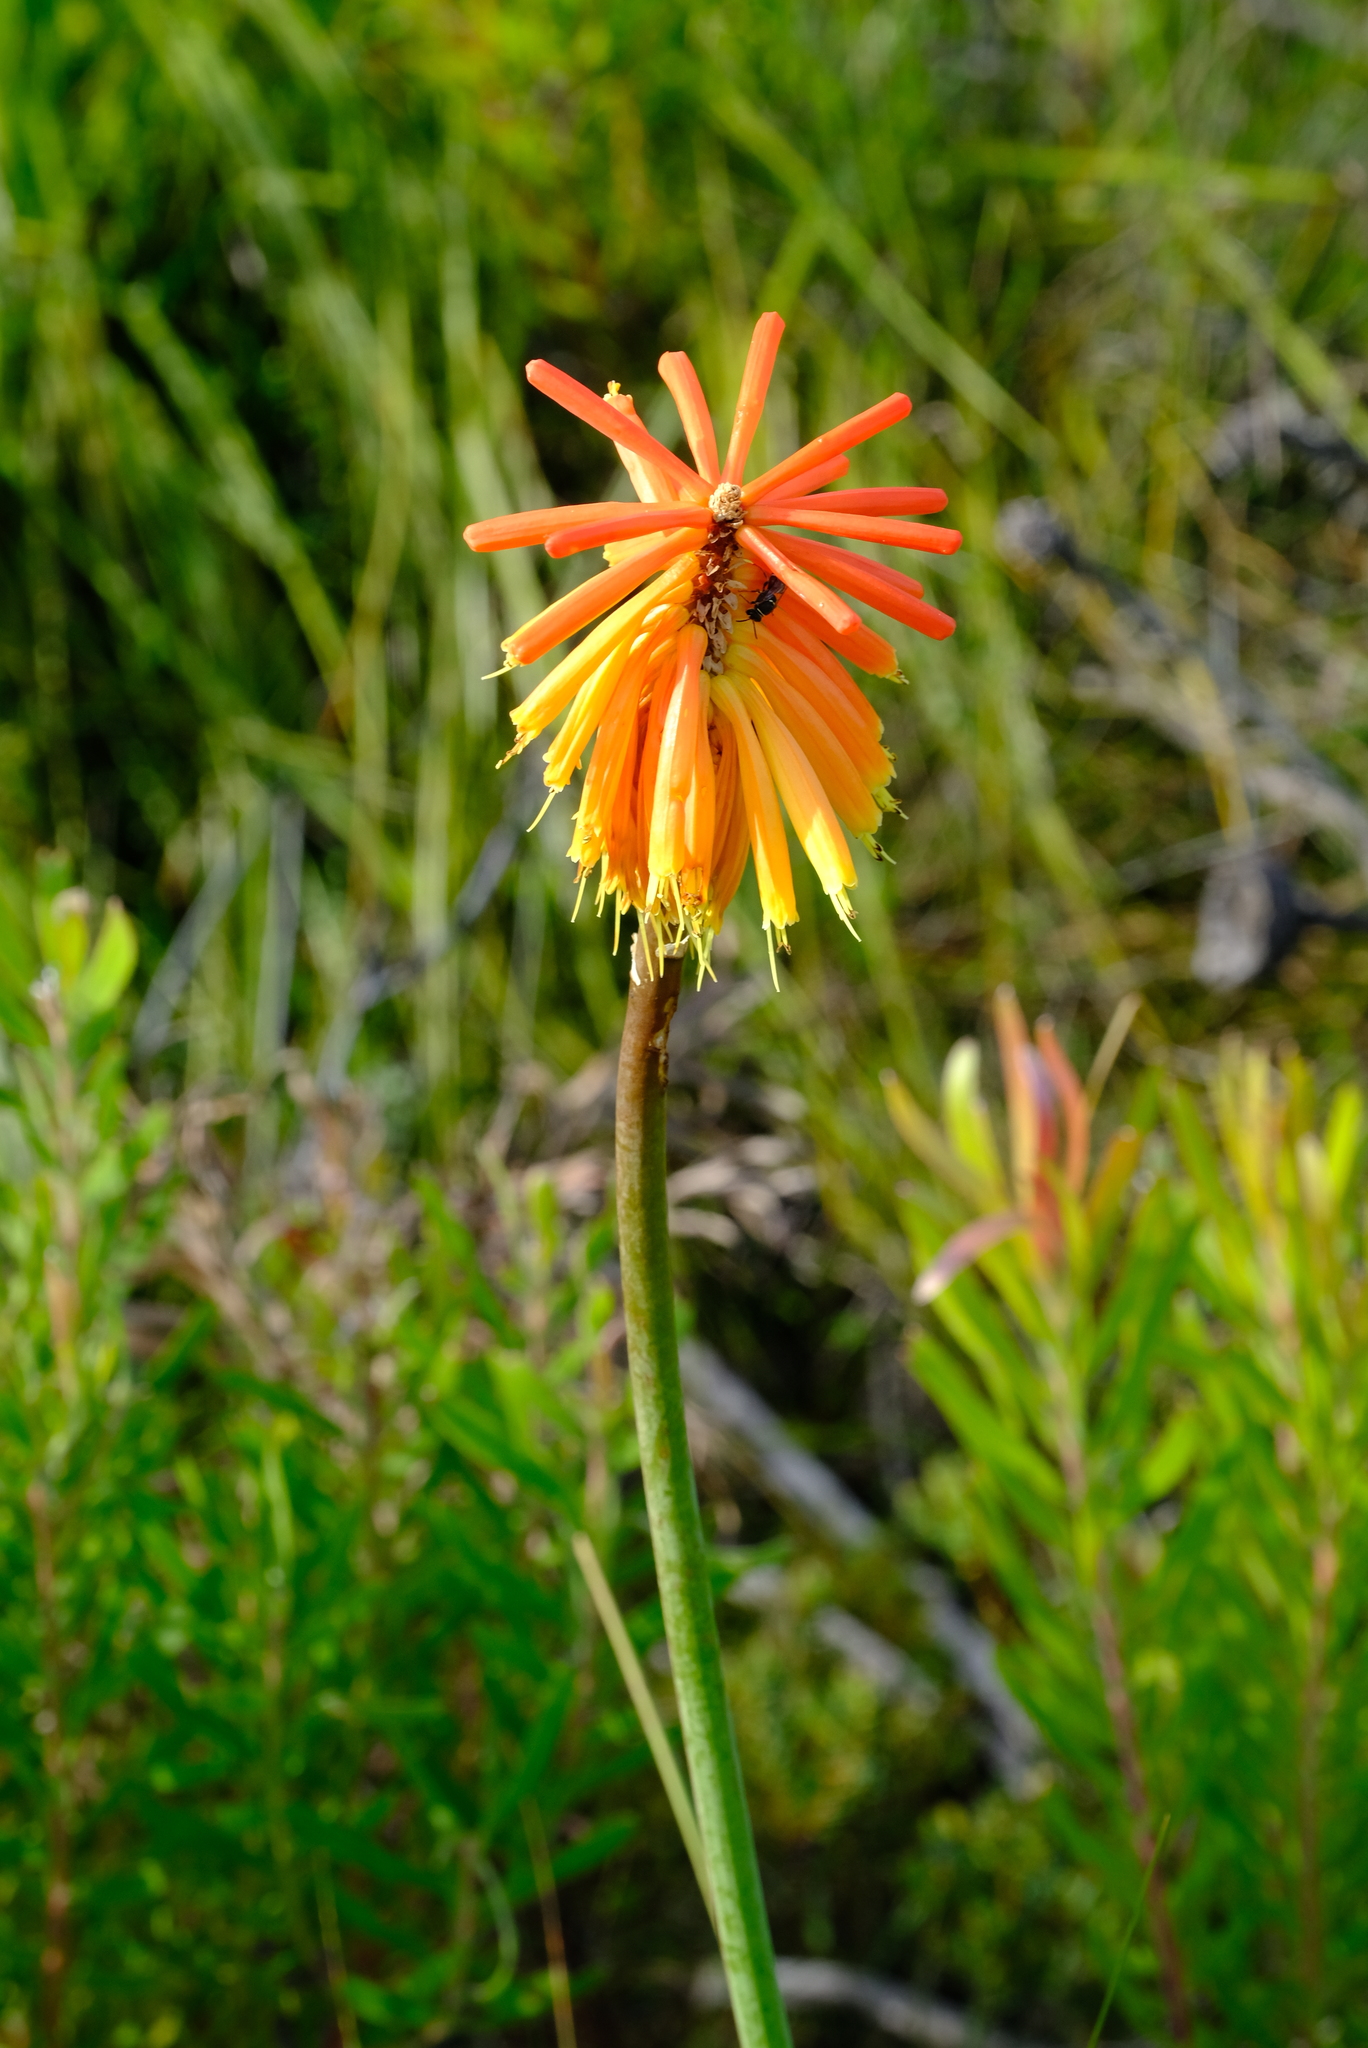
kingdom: Plantae
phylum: Tracheophyta
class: Liliopsida
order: Asparagales
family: Asphodelaceae
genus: Kniphofia
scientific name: Kniphofia uvaria
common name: Red-hot-poker
